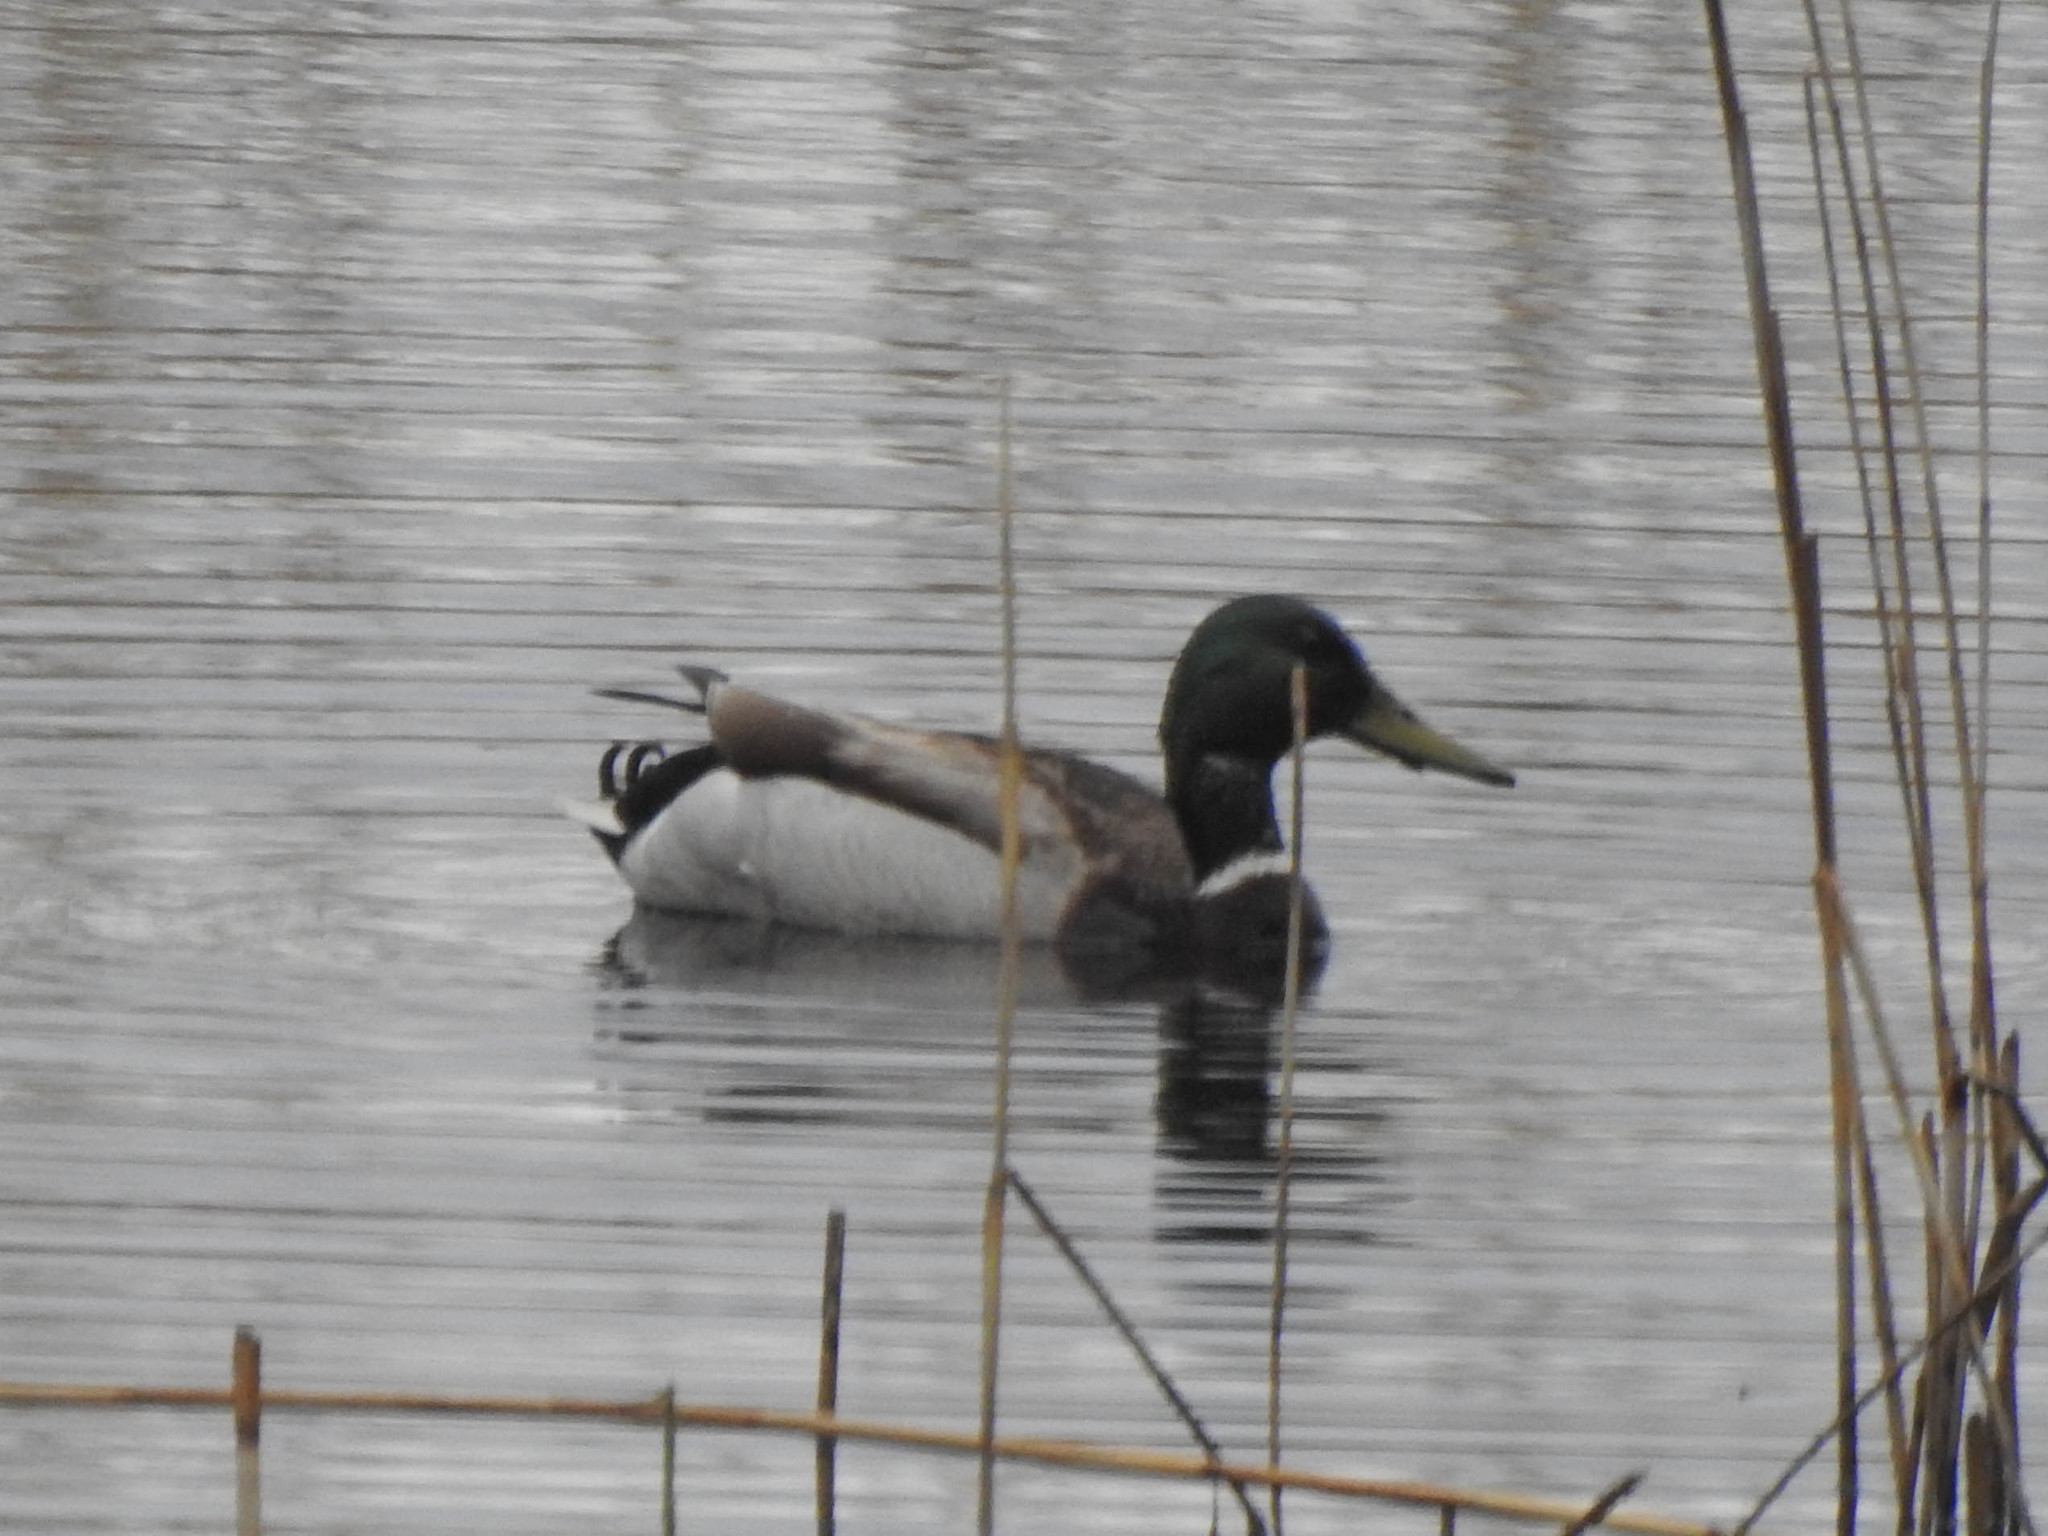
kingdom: Animalia
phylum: Chordata
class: Aves
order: Anseriformes
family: Anatidae
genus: Anas
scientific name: Anas platyrhynchos
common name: Mallard
